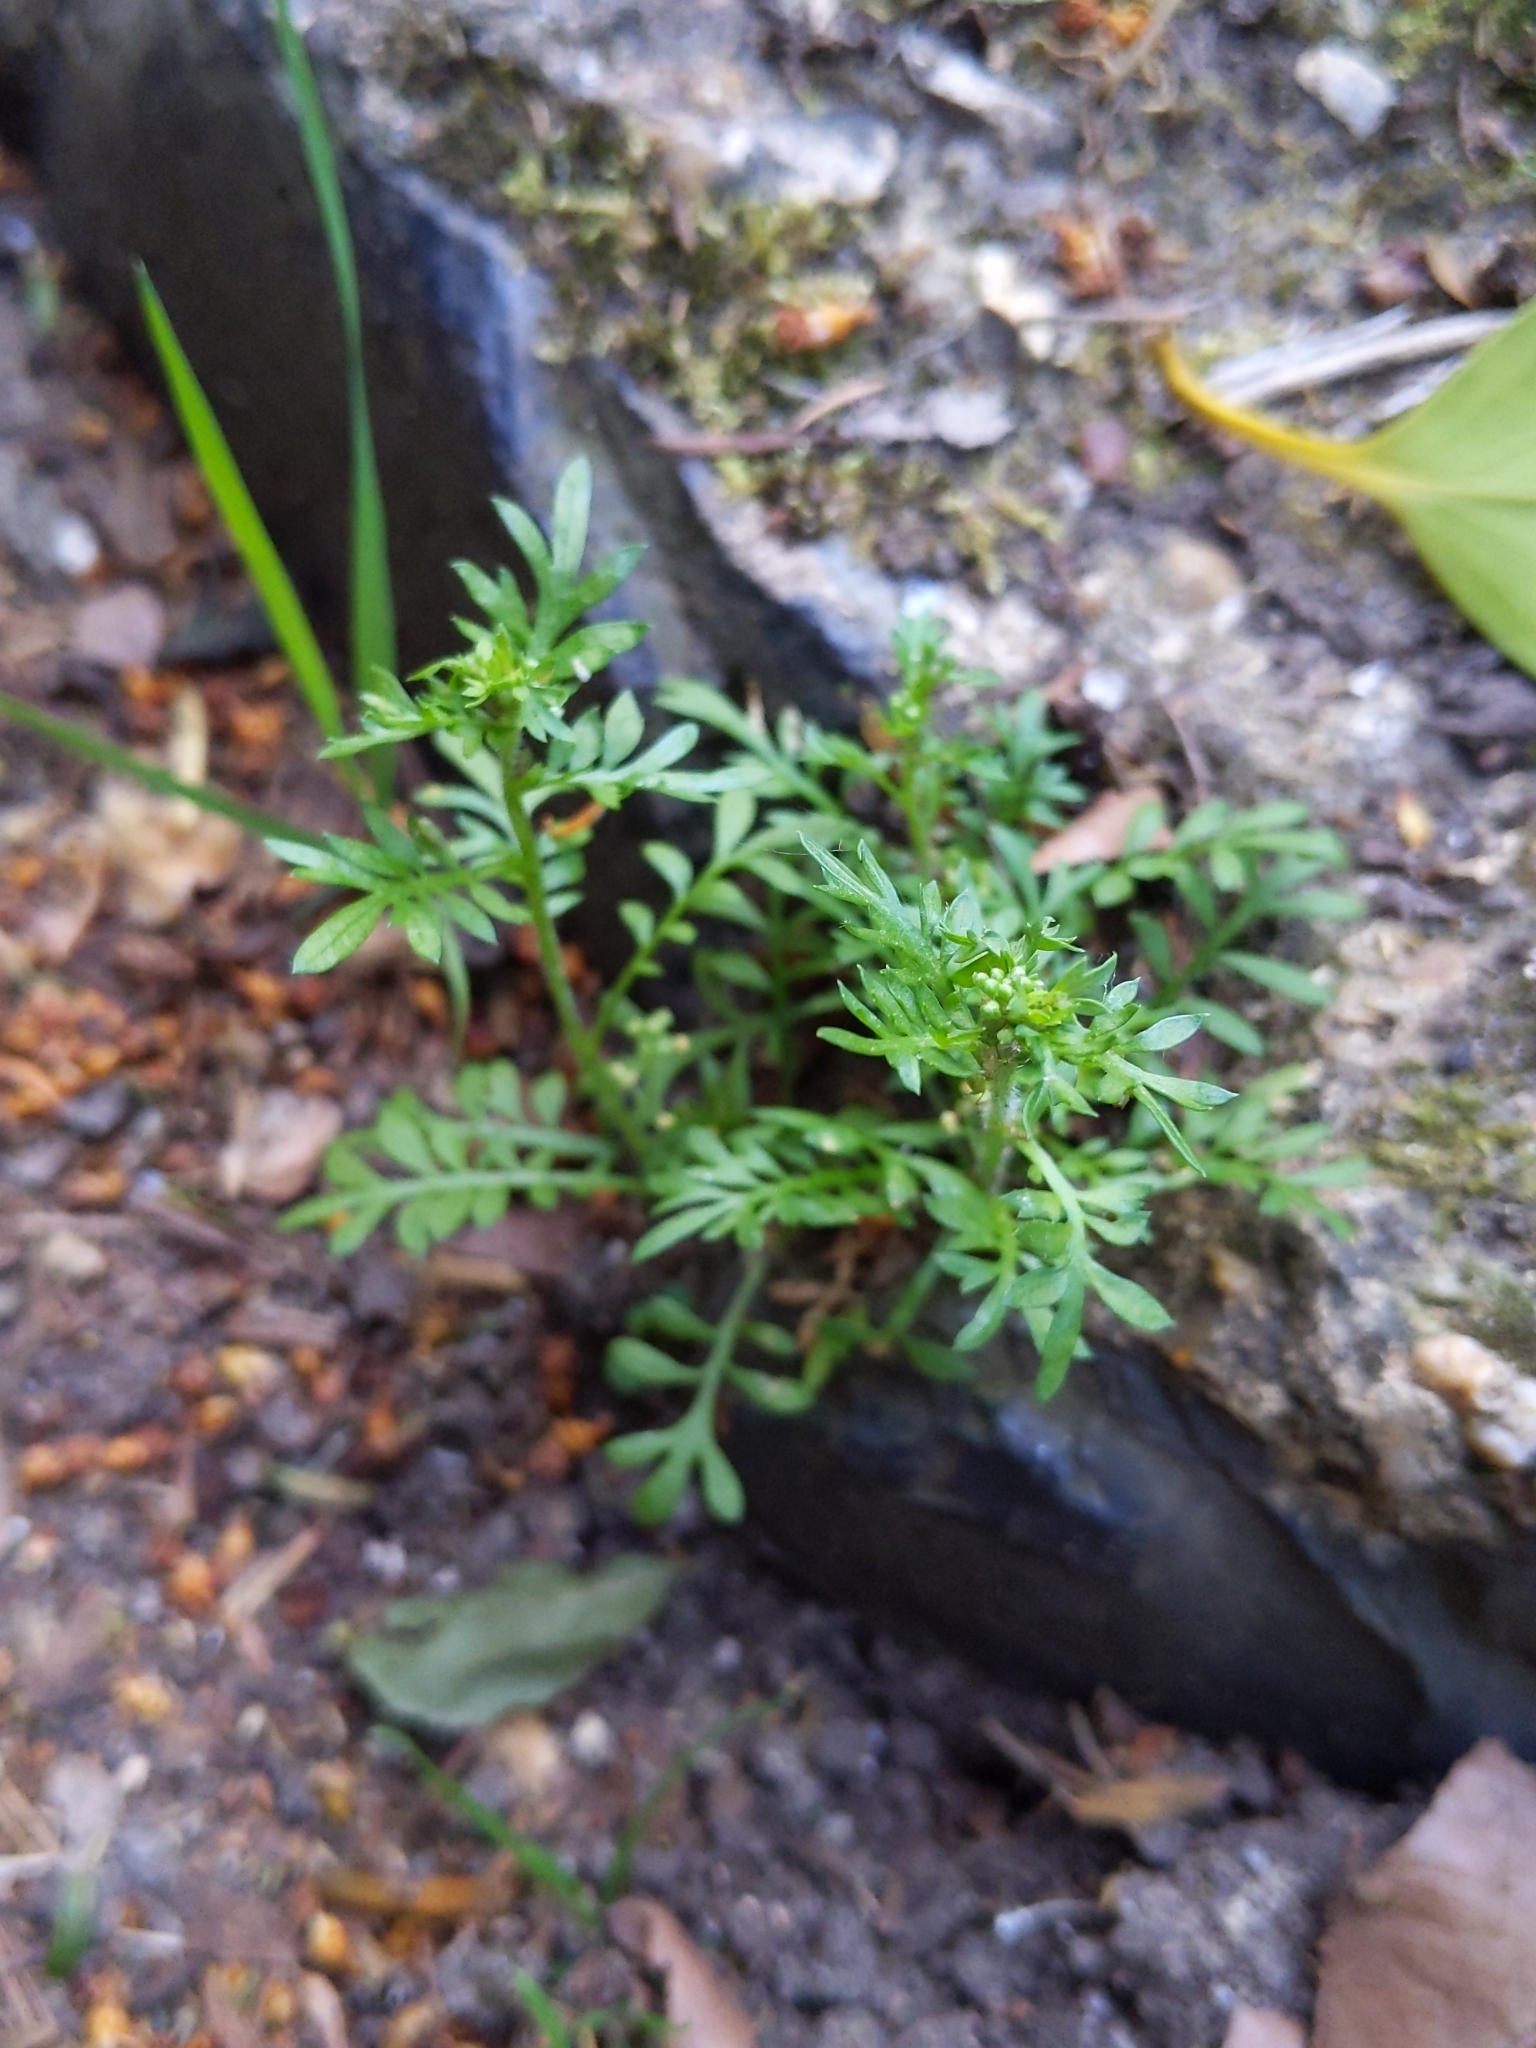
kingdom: Plantae
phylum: Tracheophyta
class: Magnoliopsida
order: Brassicales
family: Brassicaceae
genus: Lepidium
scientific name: Lepidium didymum
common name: Lesser swinecress
